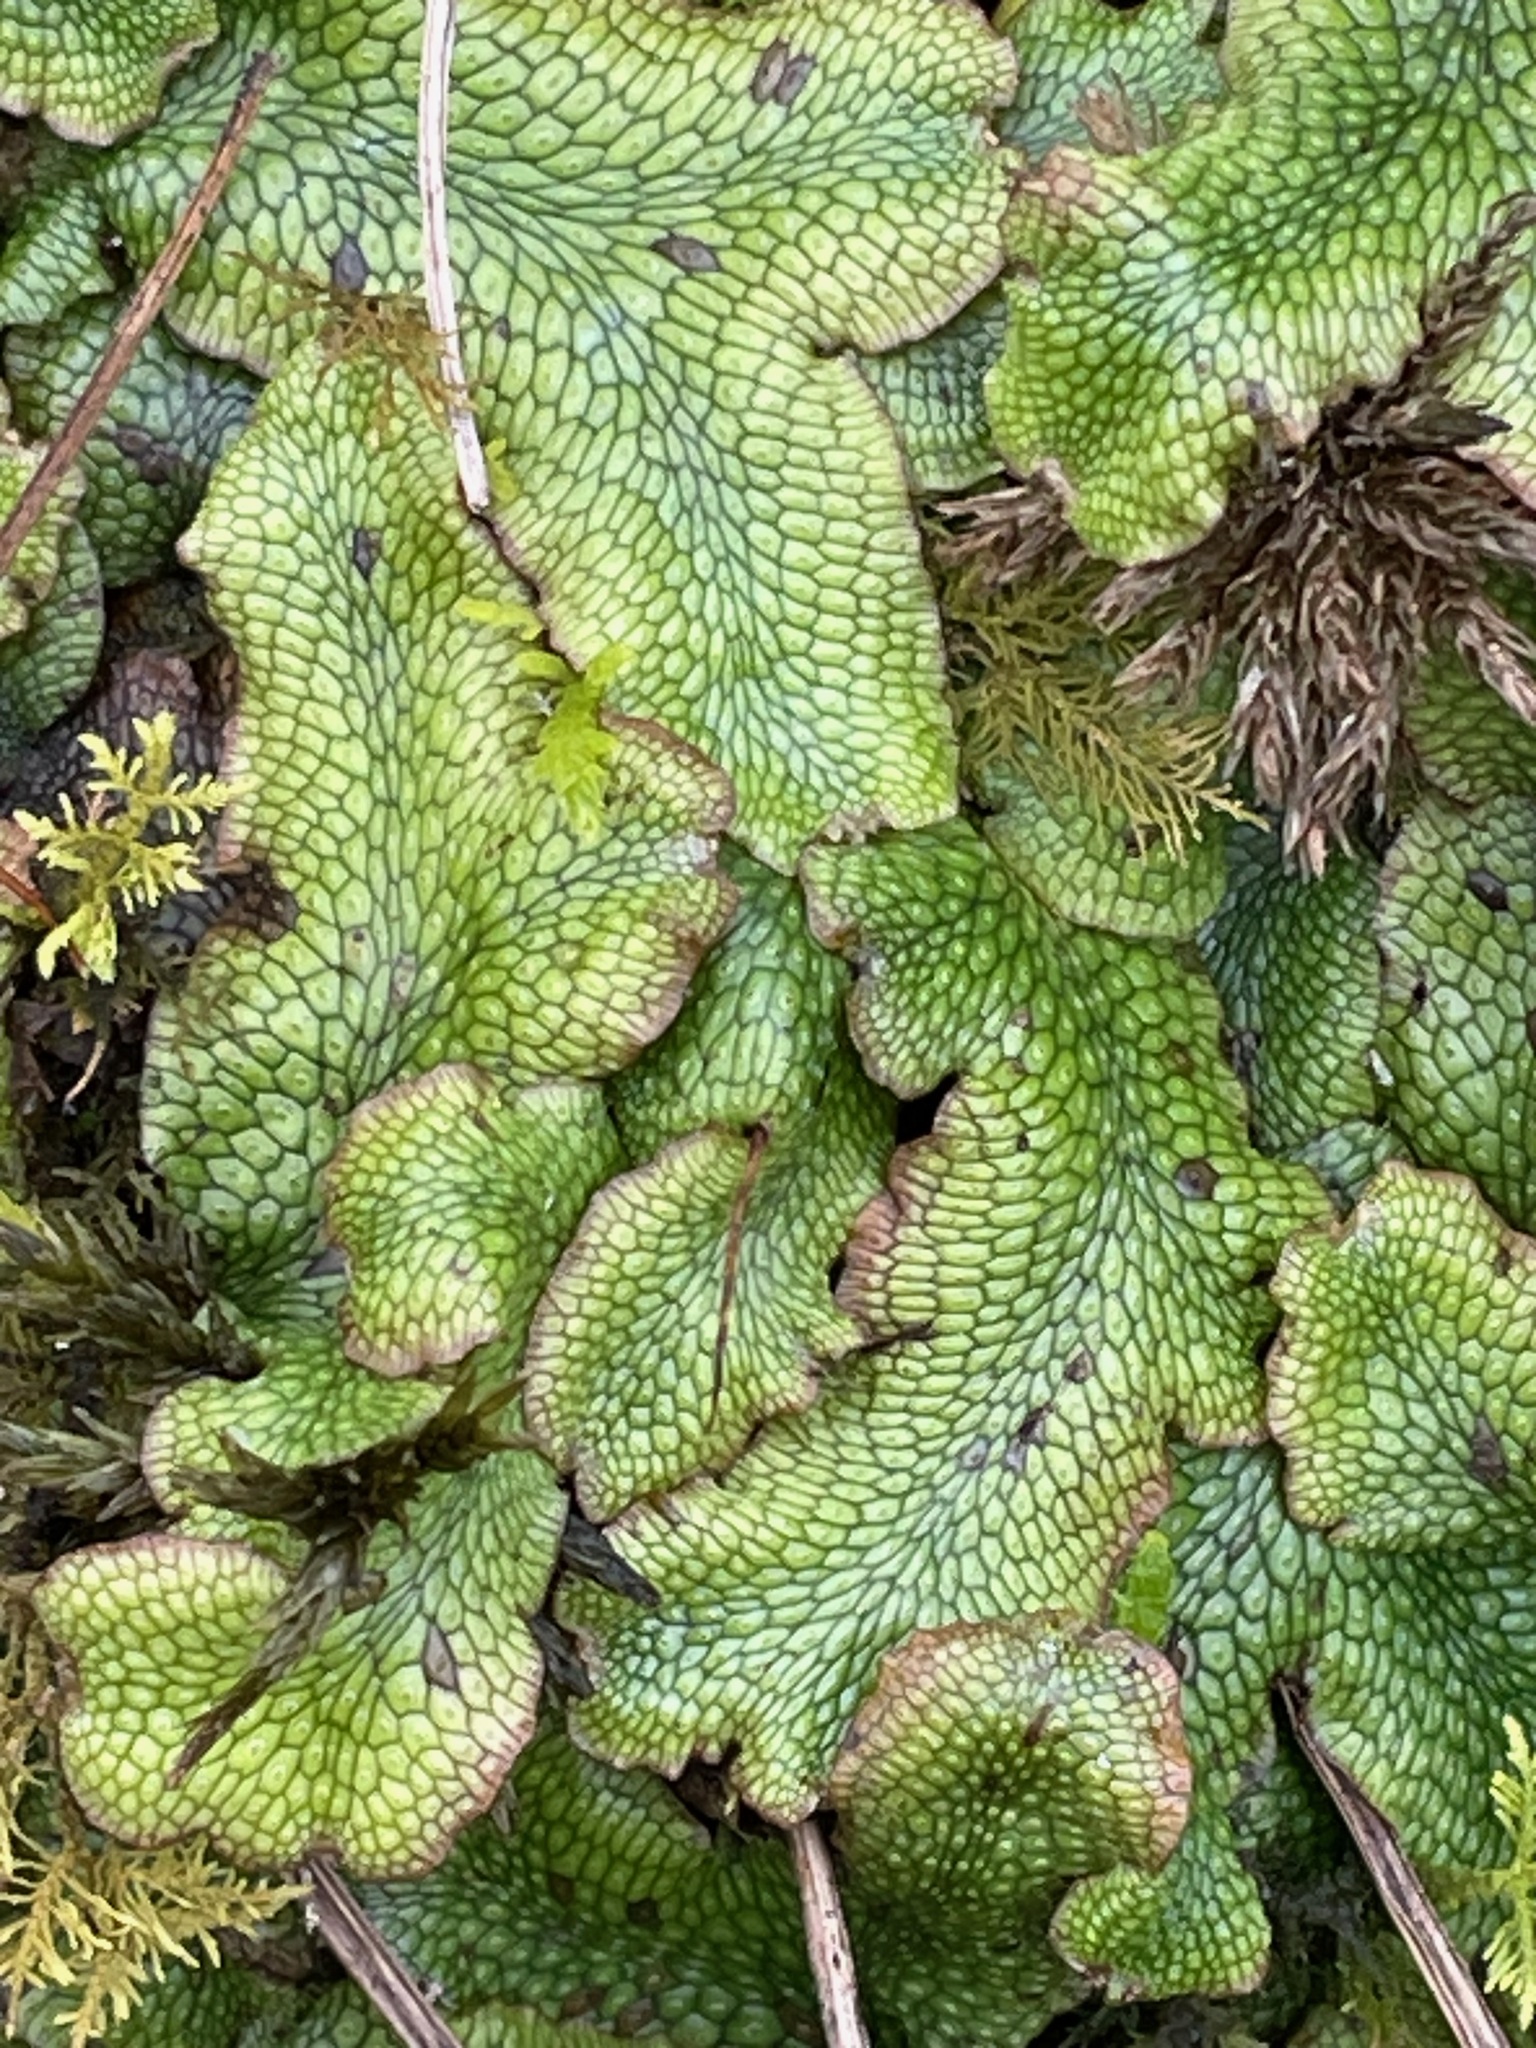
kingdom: Plantae
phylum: Marchantiophyta
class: Marchantiopsida
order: Marchantiales
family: Conocephalaceae
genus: Conocephalum
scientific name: Conocephalum salebrosum
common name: Cat-tongue liverwort
